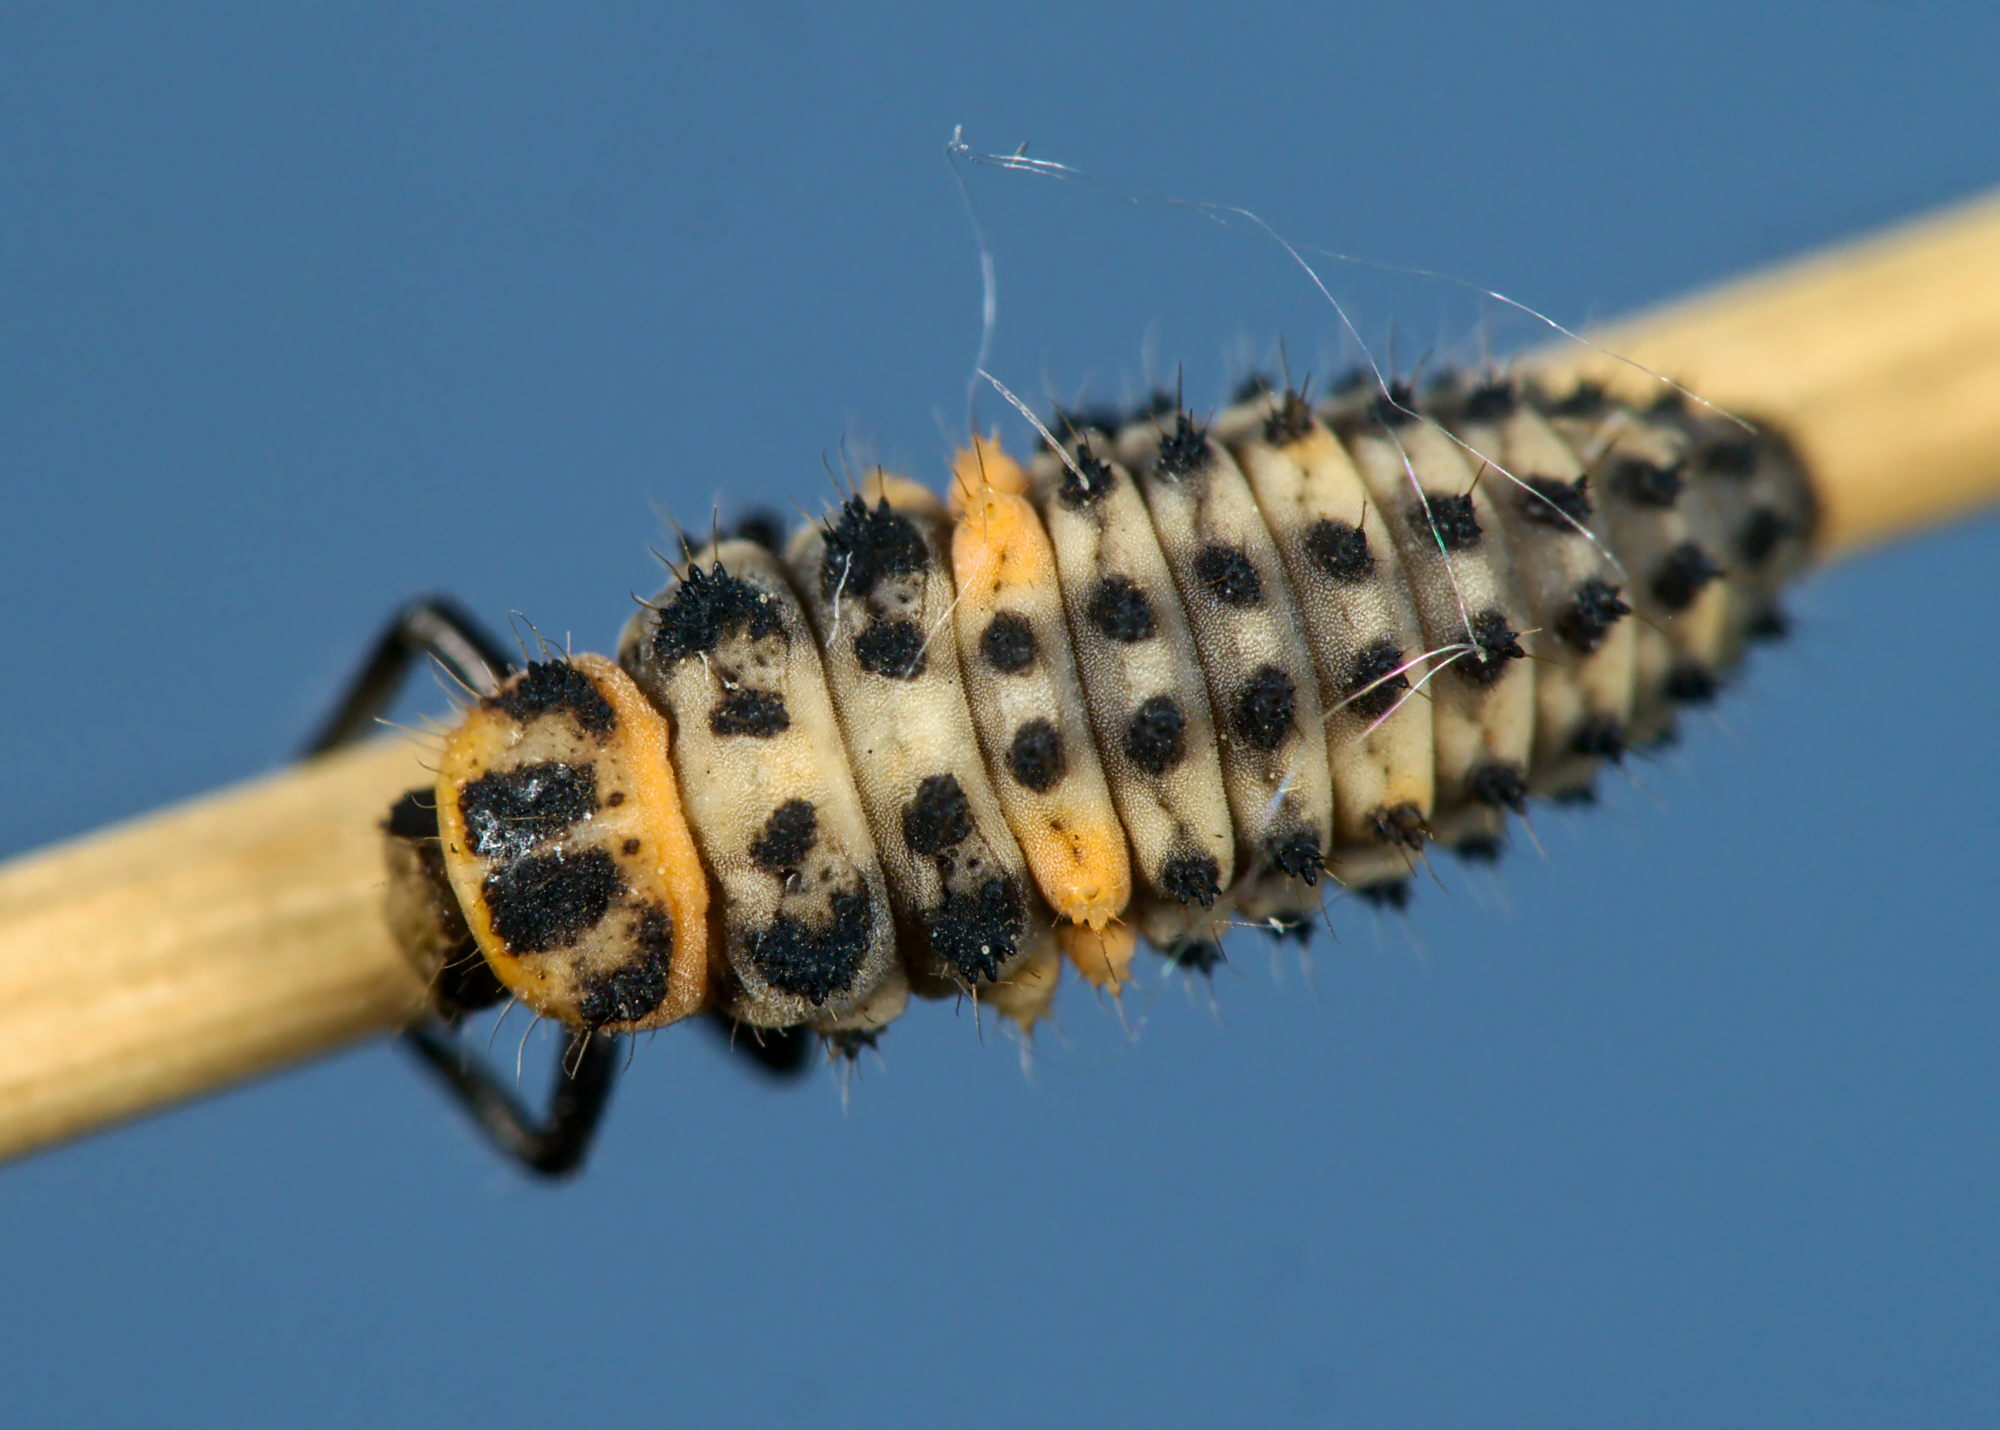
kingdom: Animalia
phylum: Arthropoda
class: Insecta
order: Coleoptera
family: Coccinellidae
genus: Hippodamia
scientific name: Hippodamia variegata
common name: Ladybird beetle
